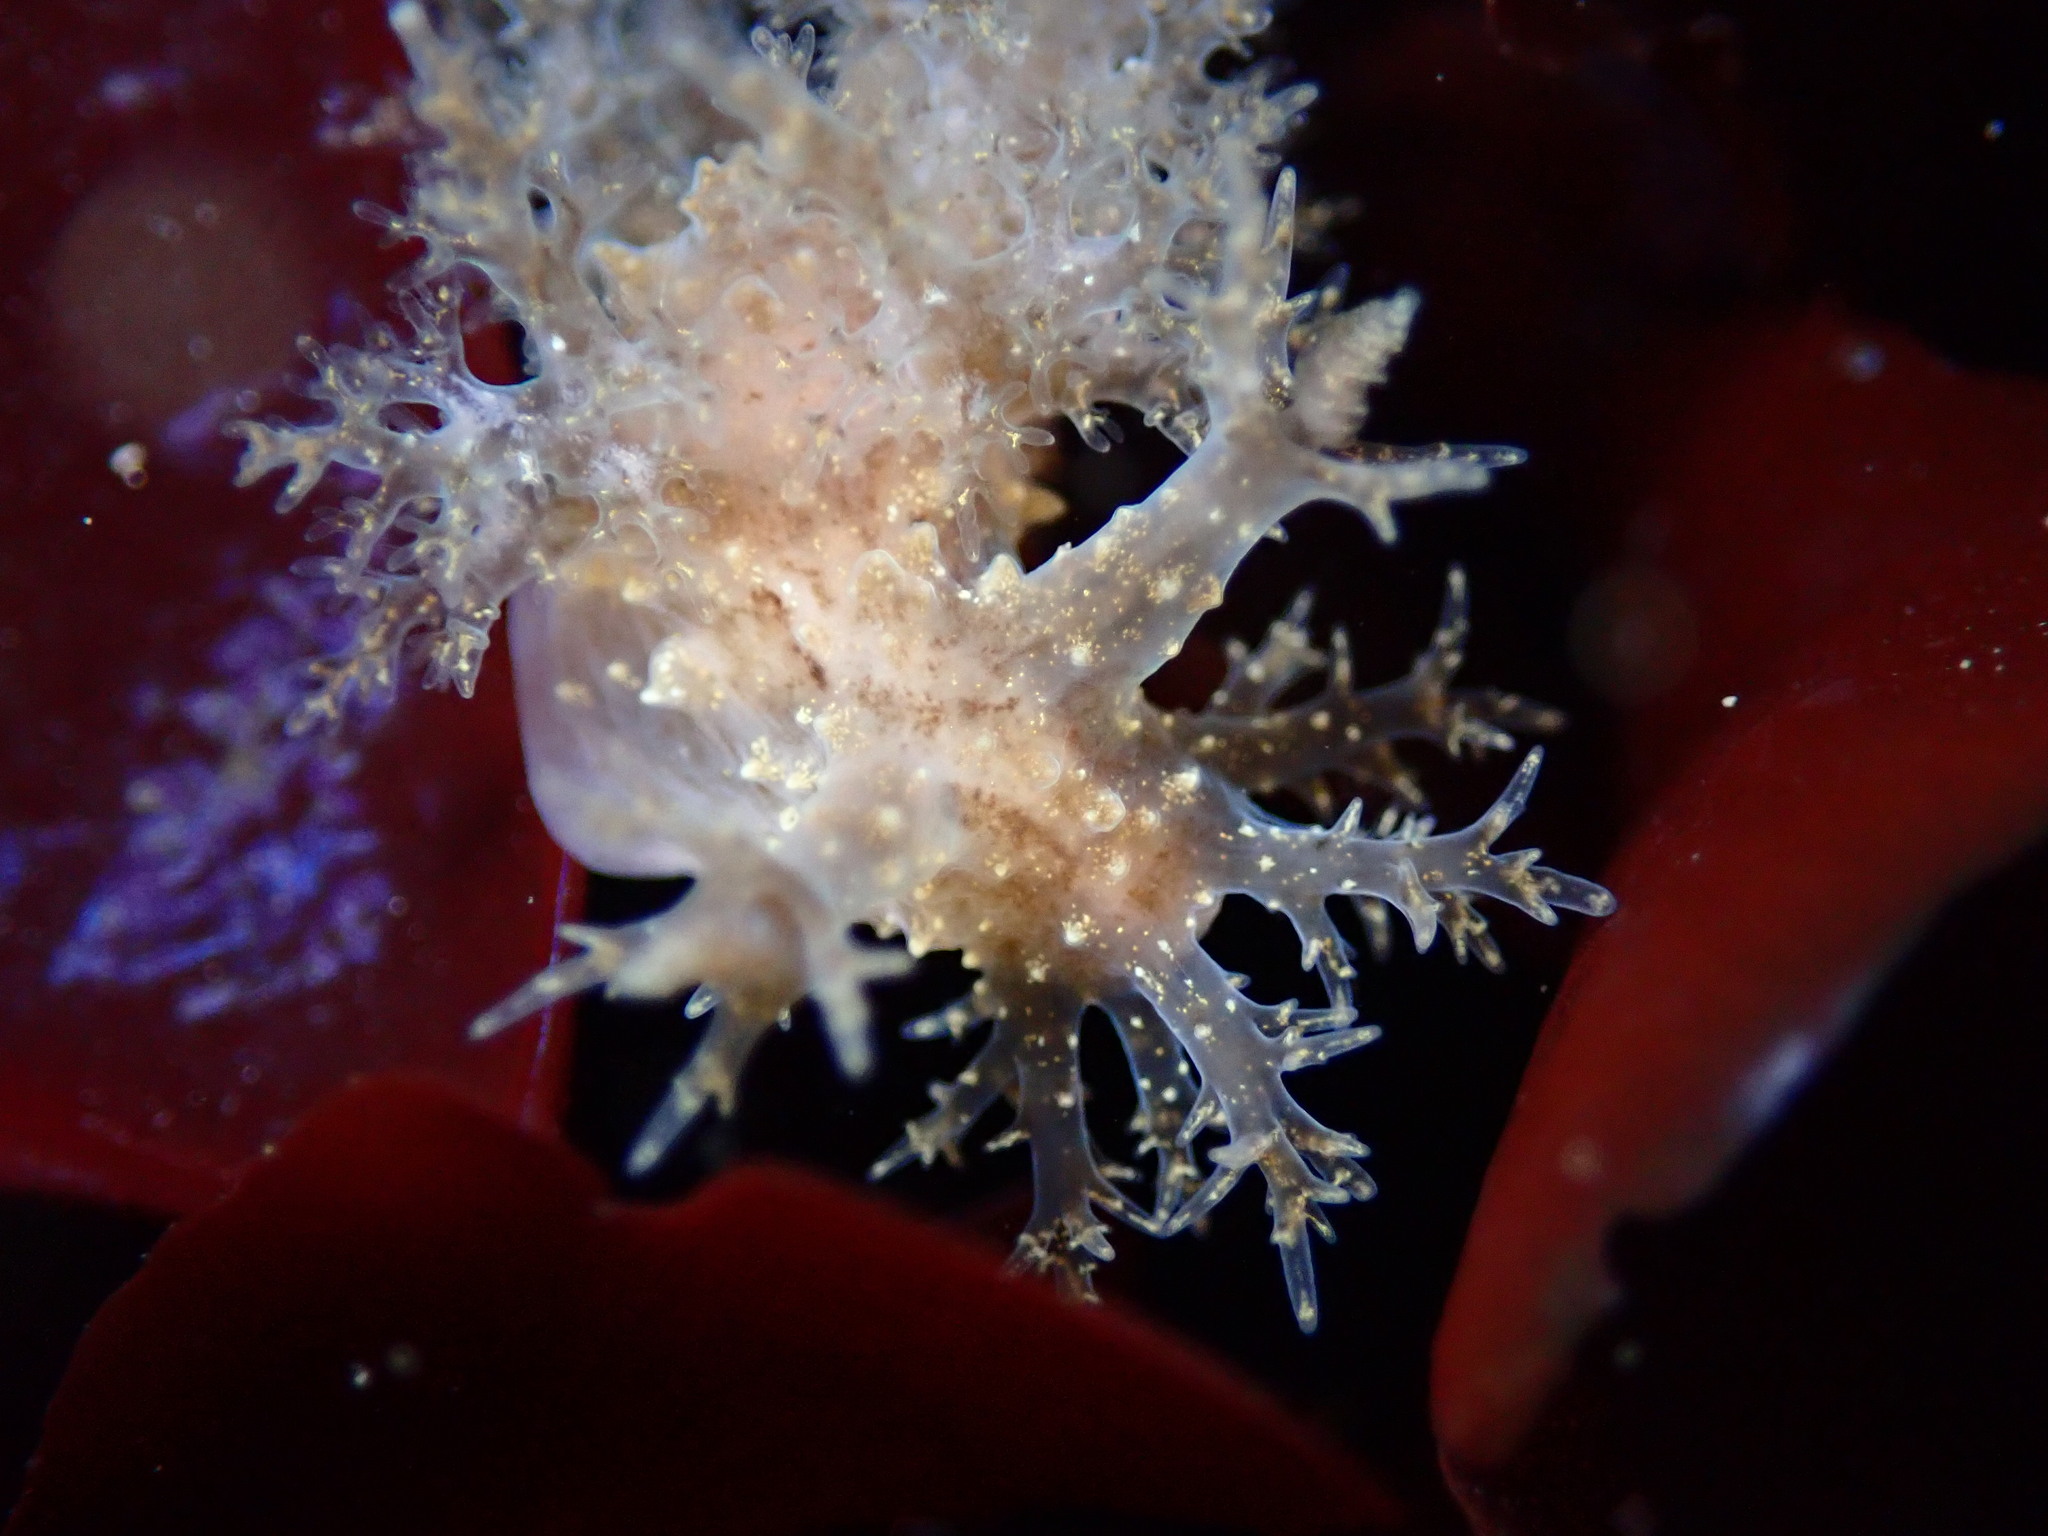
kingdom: Animalia
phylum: Mollusca
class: Gastropoda
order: Nudibranchia
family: Dendronotidae
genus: Dendronotus
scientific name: Dendronotus venustus
